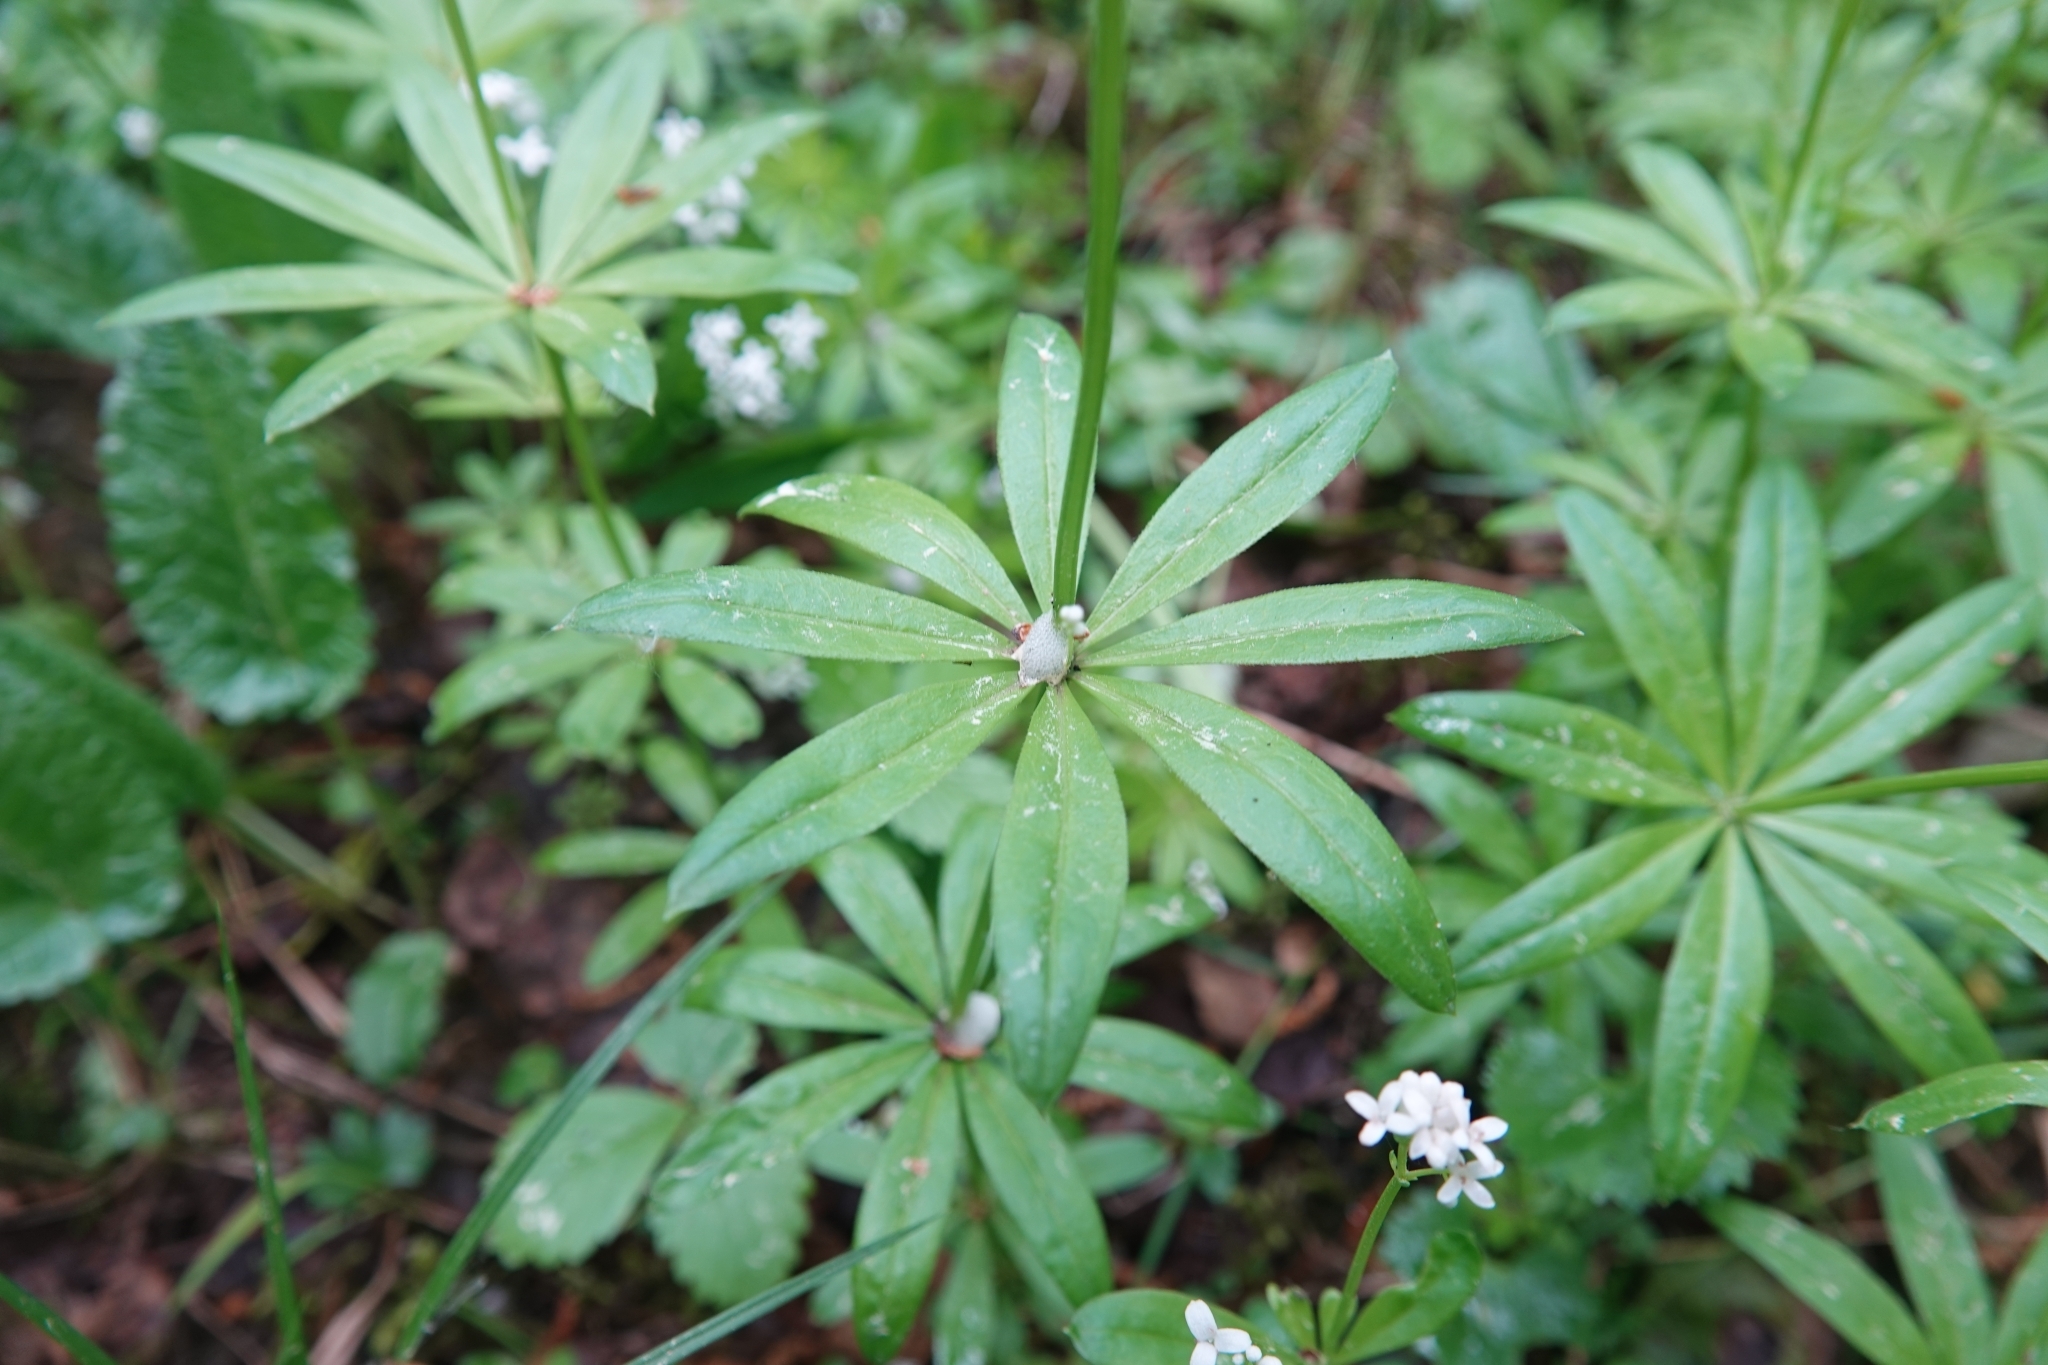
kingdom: Plantae
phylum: Tracheophyta
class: Magnoliopsida
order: Gentianales
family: Rubiaceae
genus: Galium
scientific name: Galium odoratum
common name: Sweet woodruff
